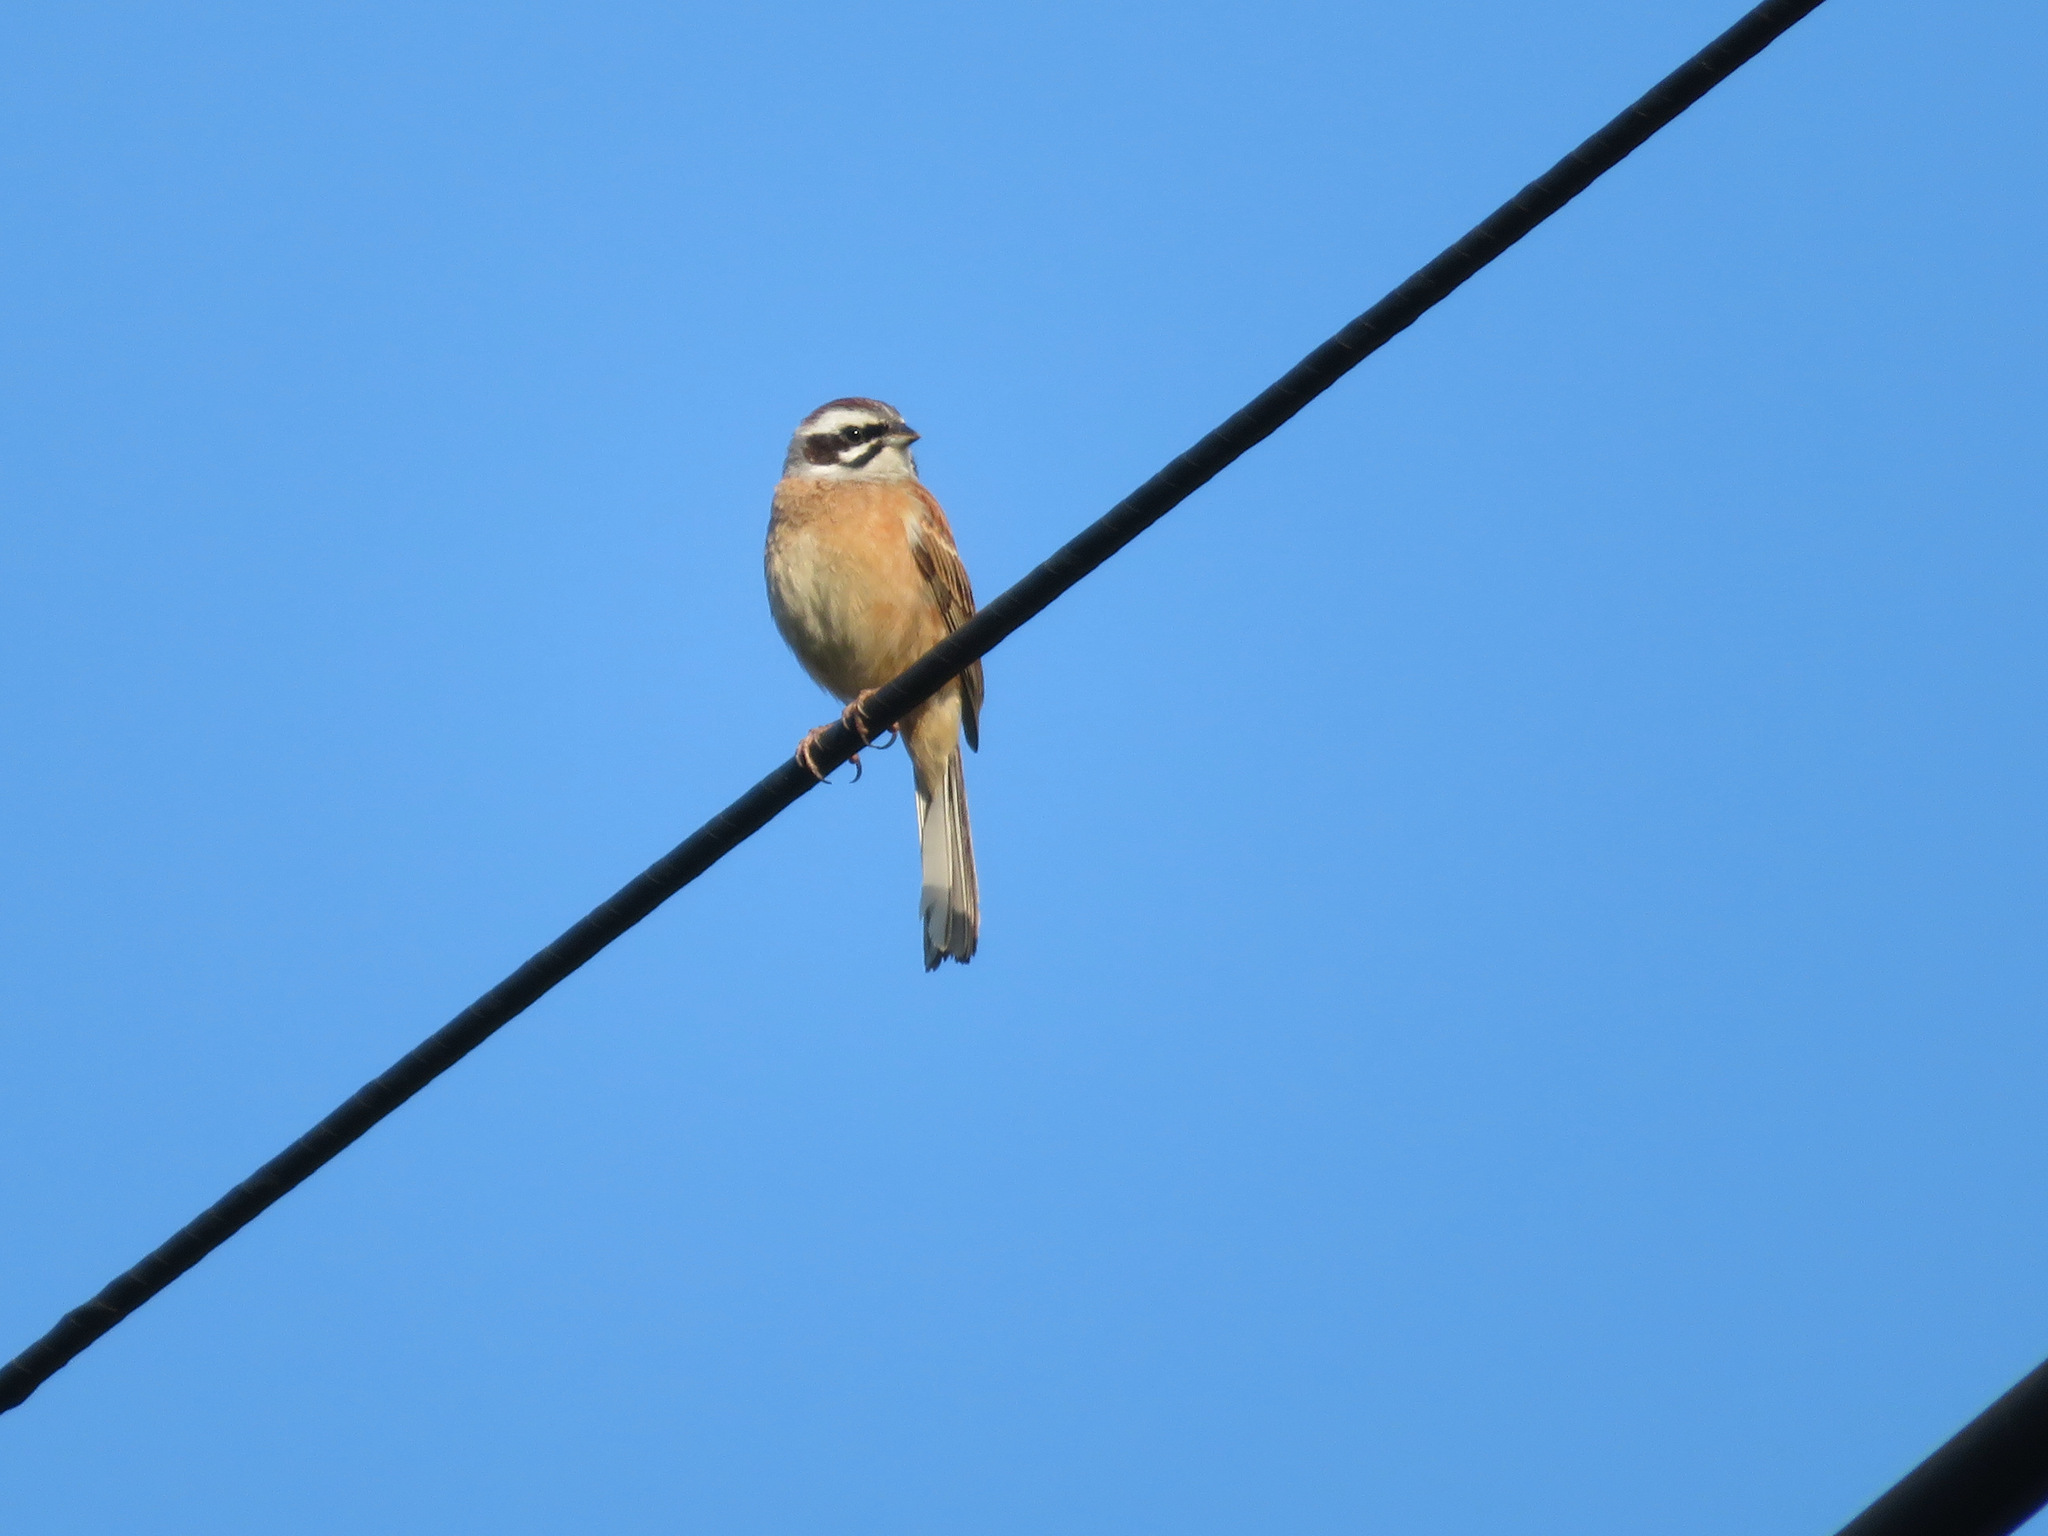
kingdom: Animalia
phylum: Chordata
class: Aves
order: Passeriformes
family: Emberizidae
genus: Emberiza
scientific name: Emberiza cioides
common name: Meadow bunting
